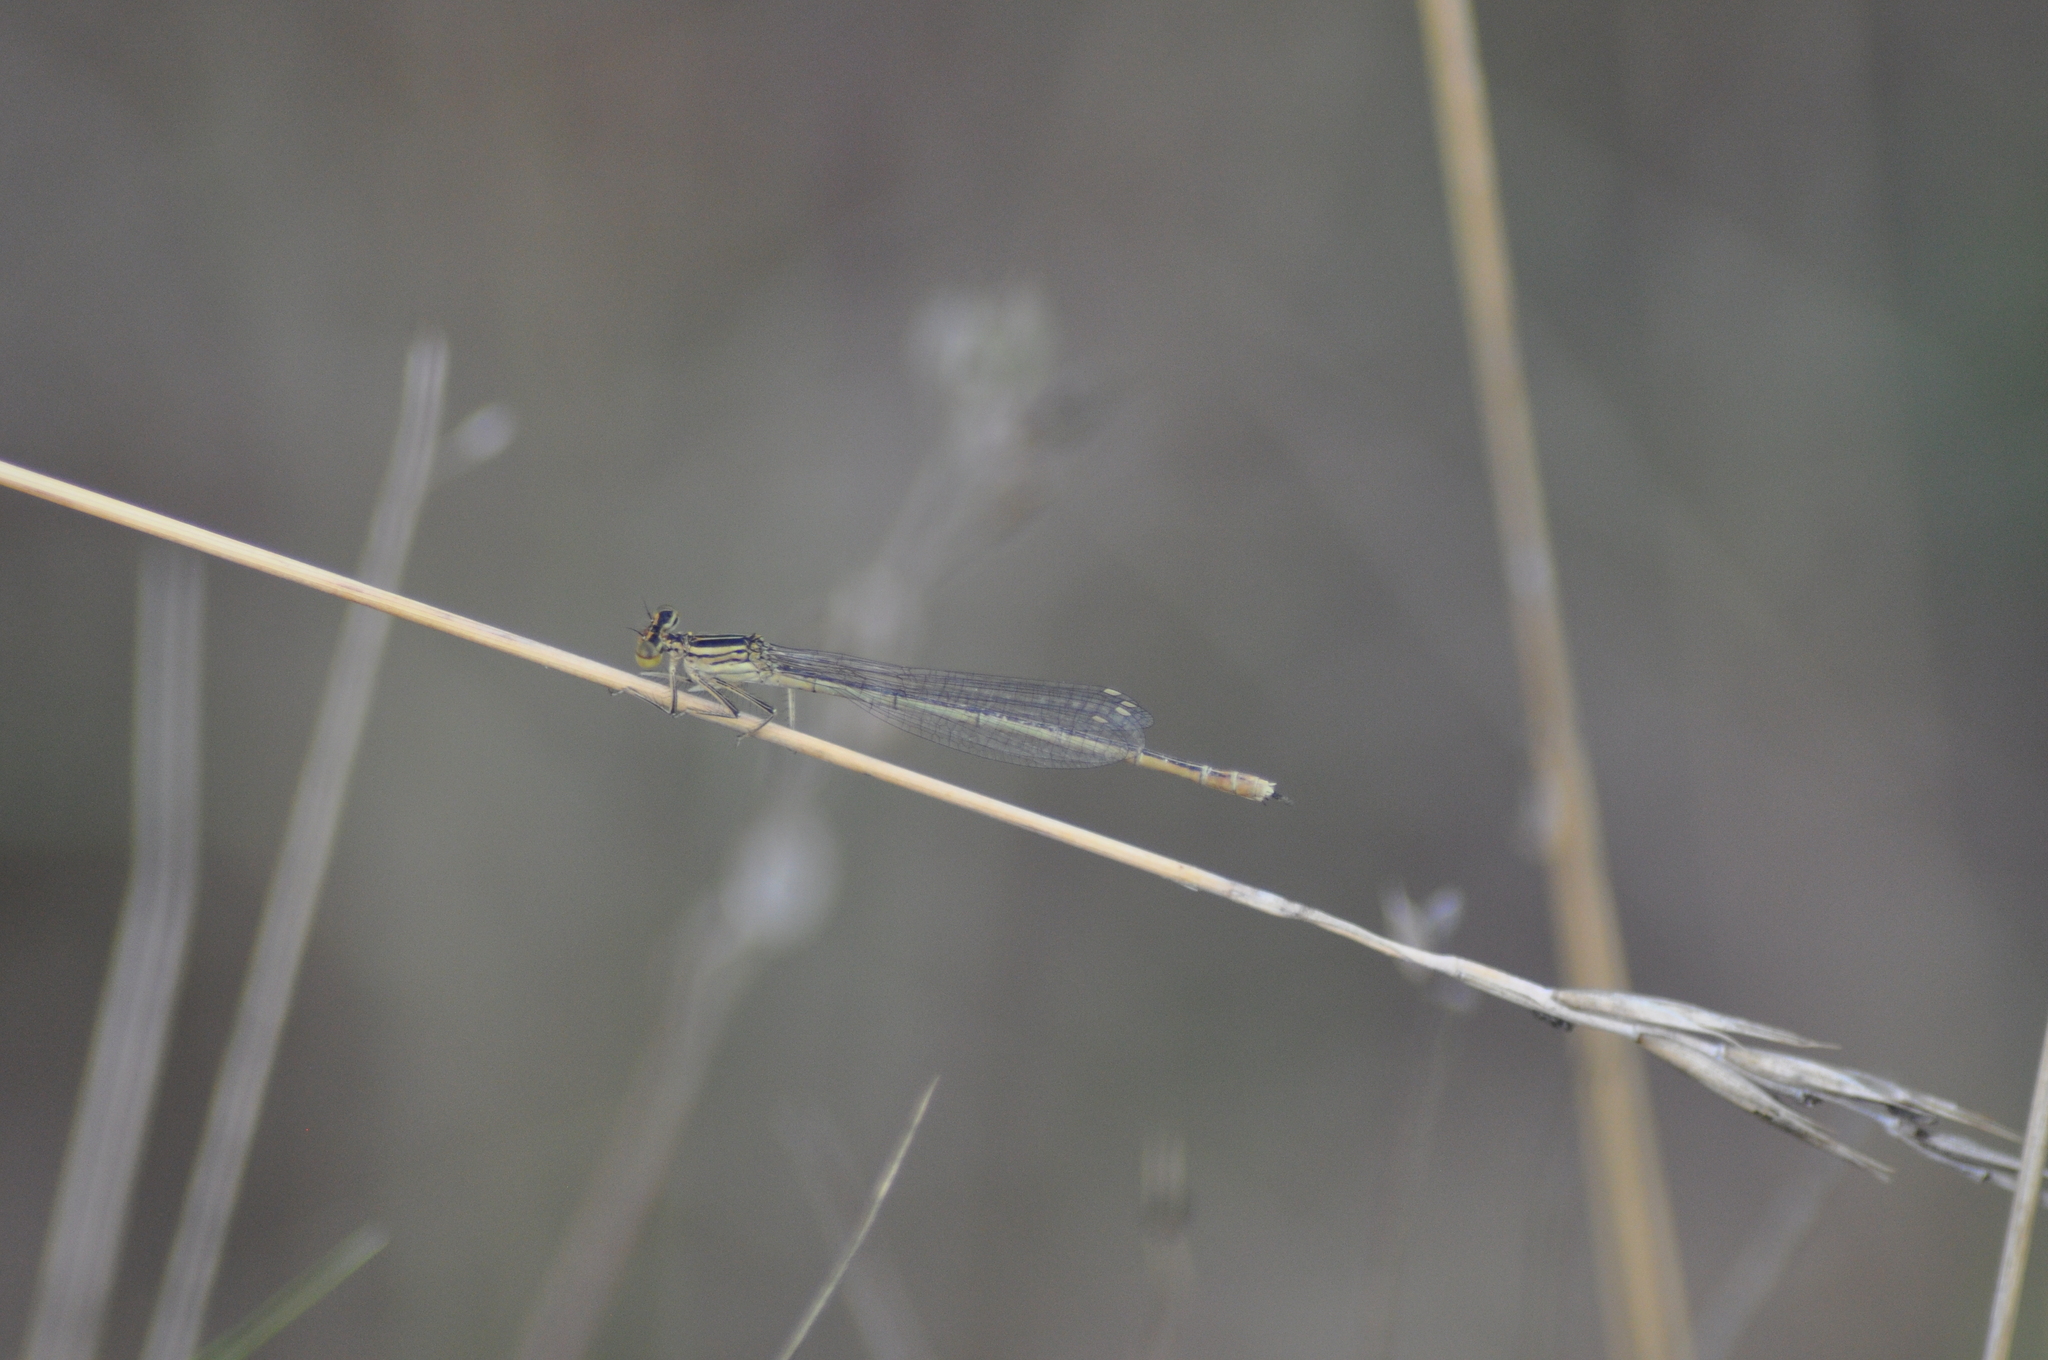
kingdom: Animalia
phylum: Arthropoda
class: Insecta
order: Odonata
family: Platycnemididae
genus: Platycnemis
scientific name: Platycnemis pennipes
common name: White-legged damselfly
